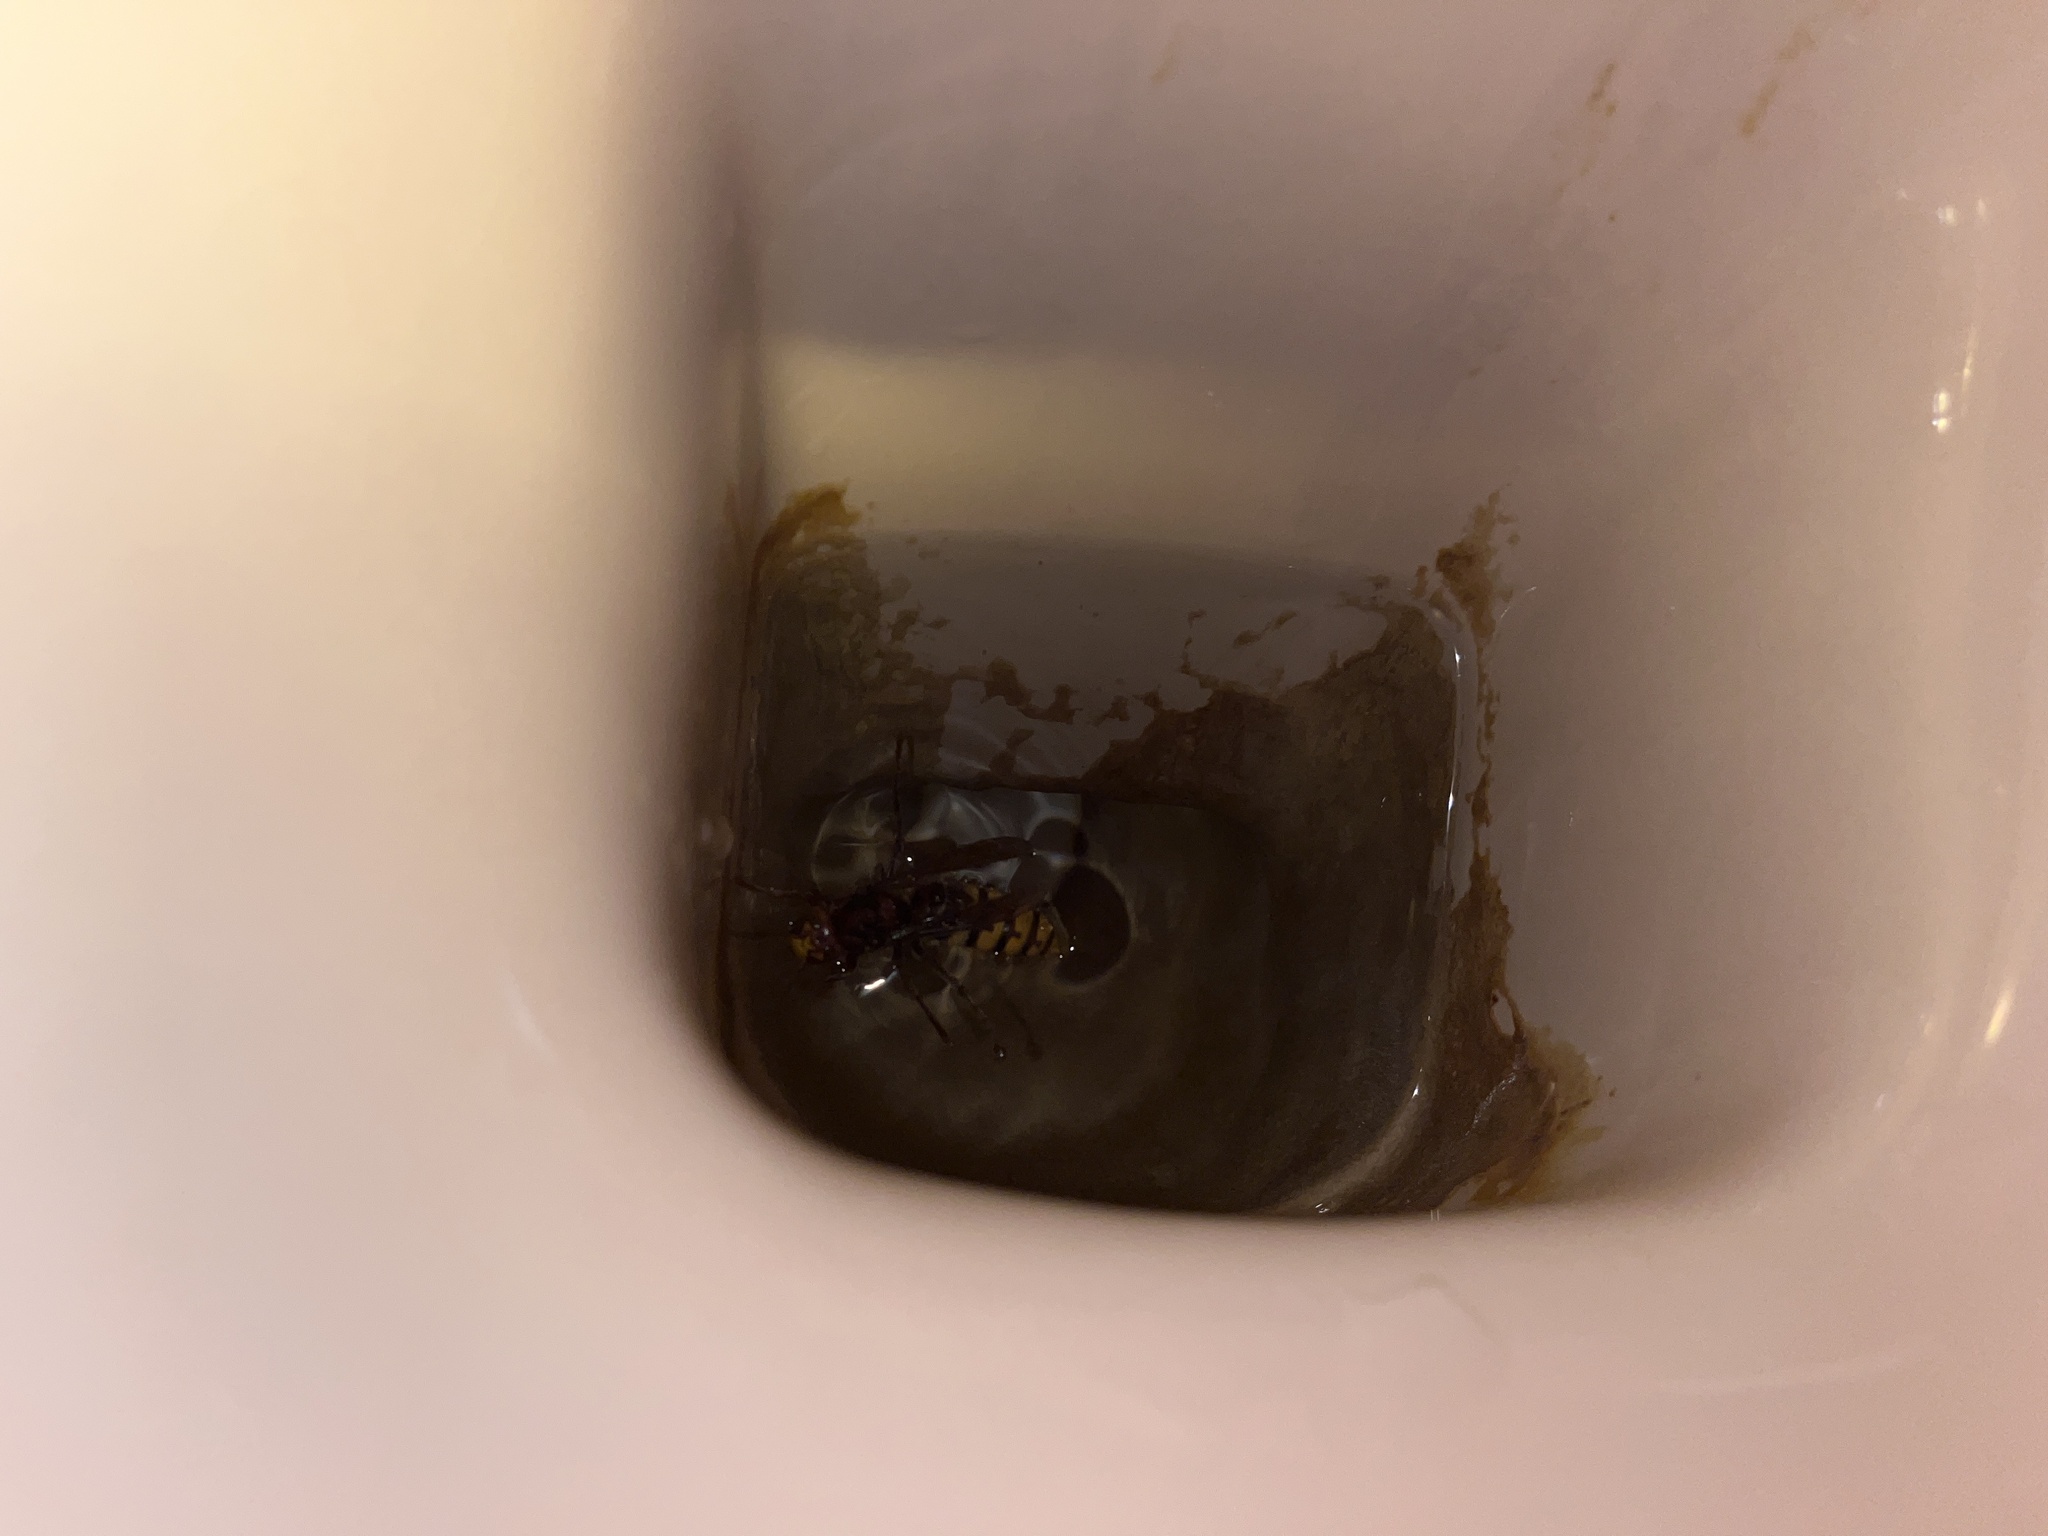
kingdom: Animalia
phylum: Arthropoda
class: Insecta
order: Hymenoptera
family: Vespidae
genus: Vespa
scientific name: Vespa crabro
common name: Hornet
